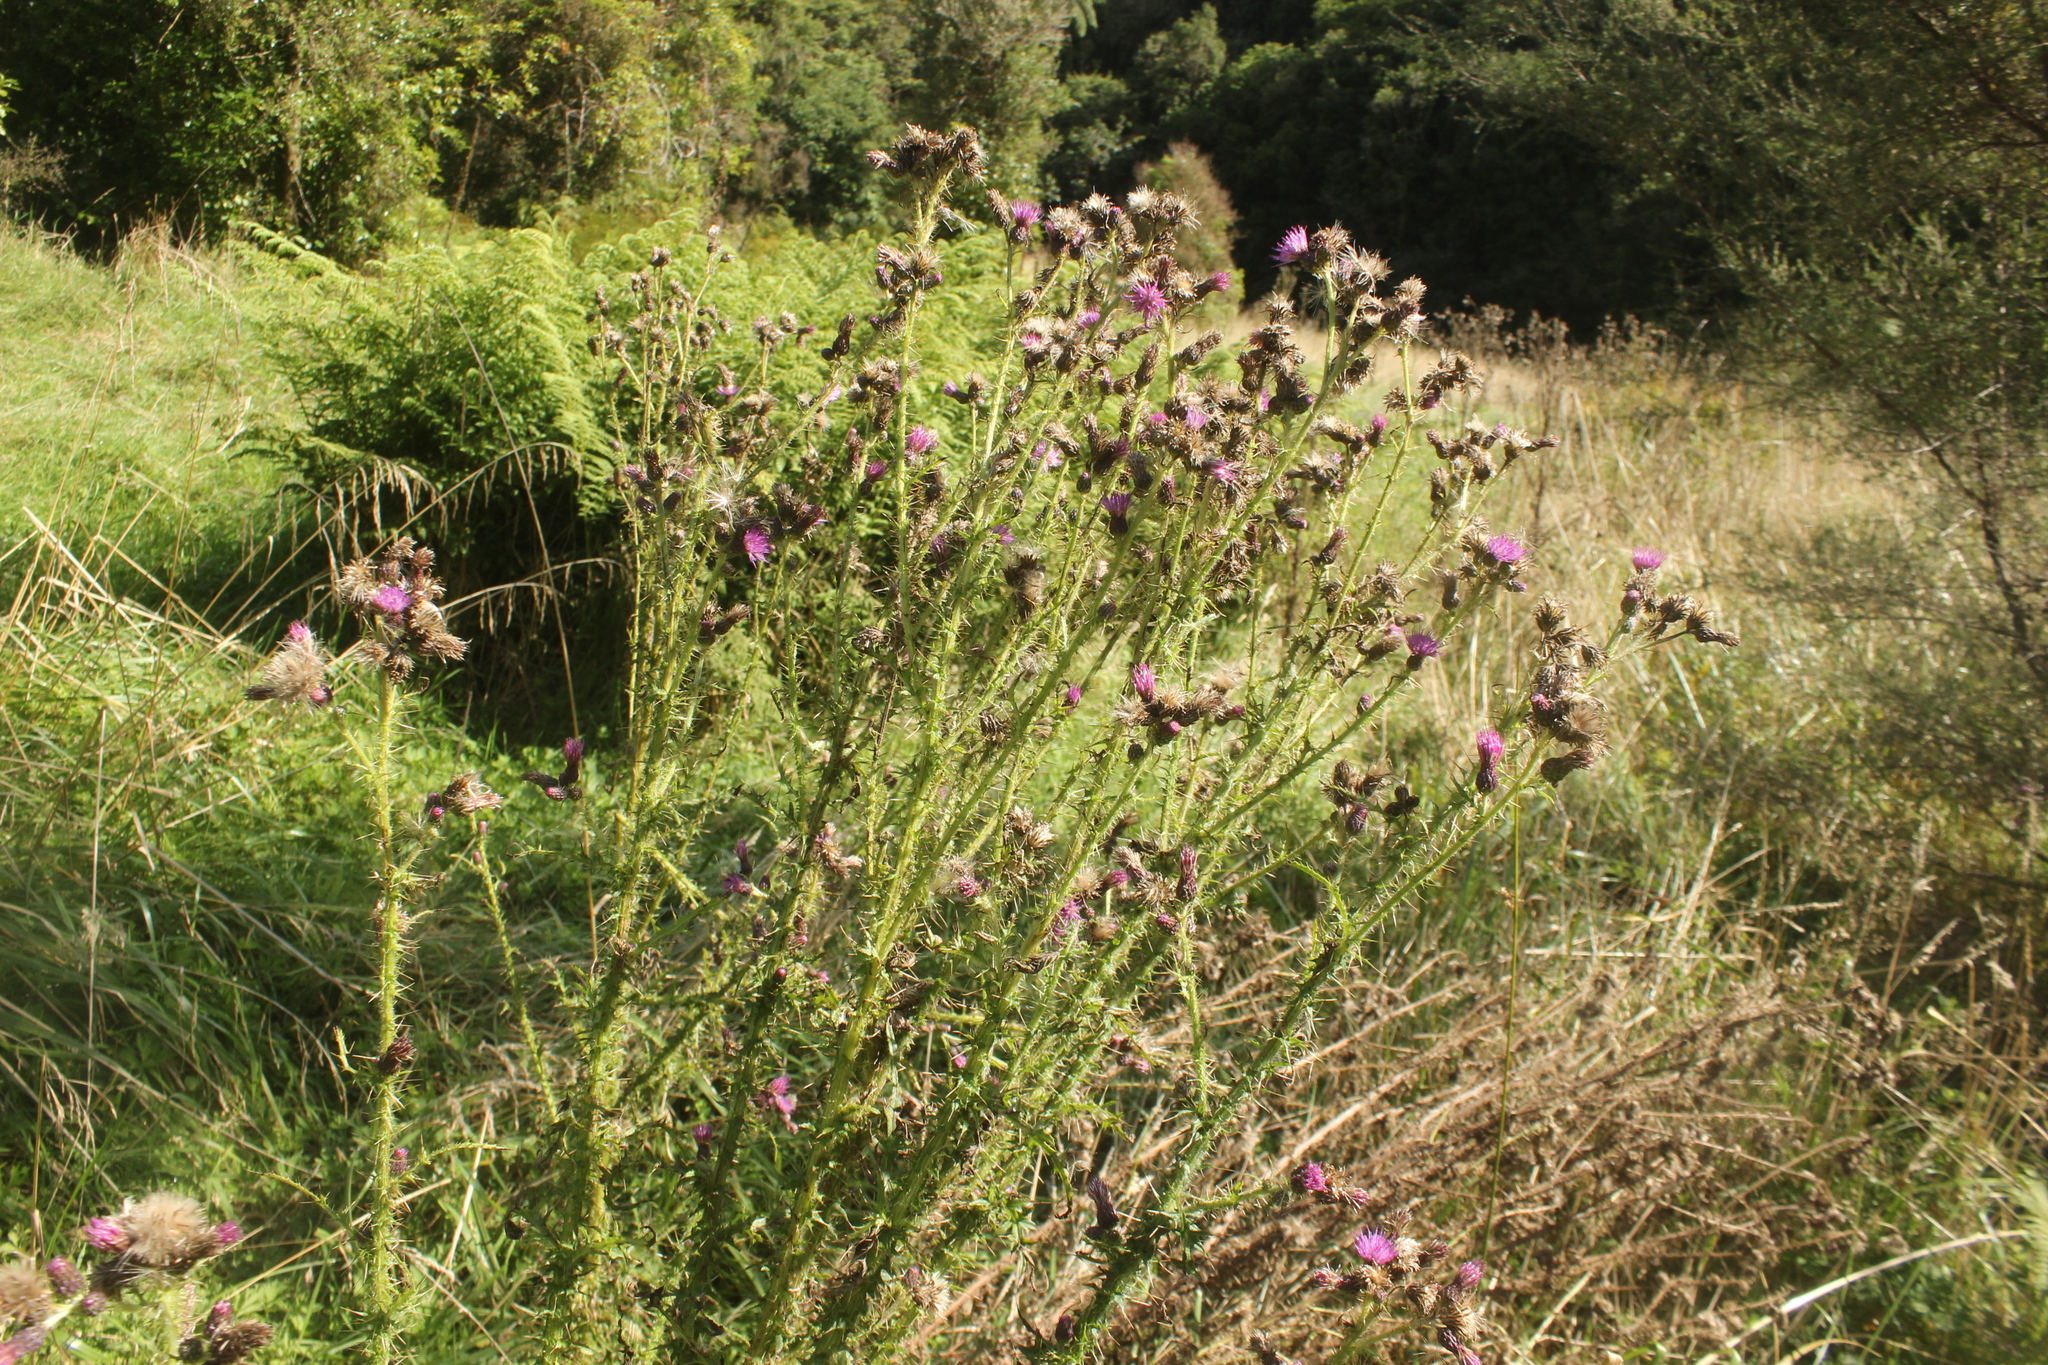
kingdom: Plantae
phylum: Tracheophyta
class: Magnoliopsida
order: Asterales
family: Asteraceae
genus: Cirsium
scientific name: Cirsium palustre
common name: Marsh thistle
